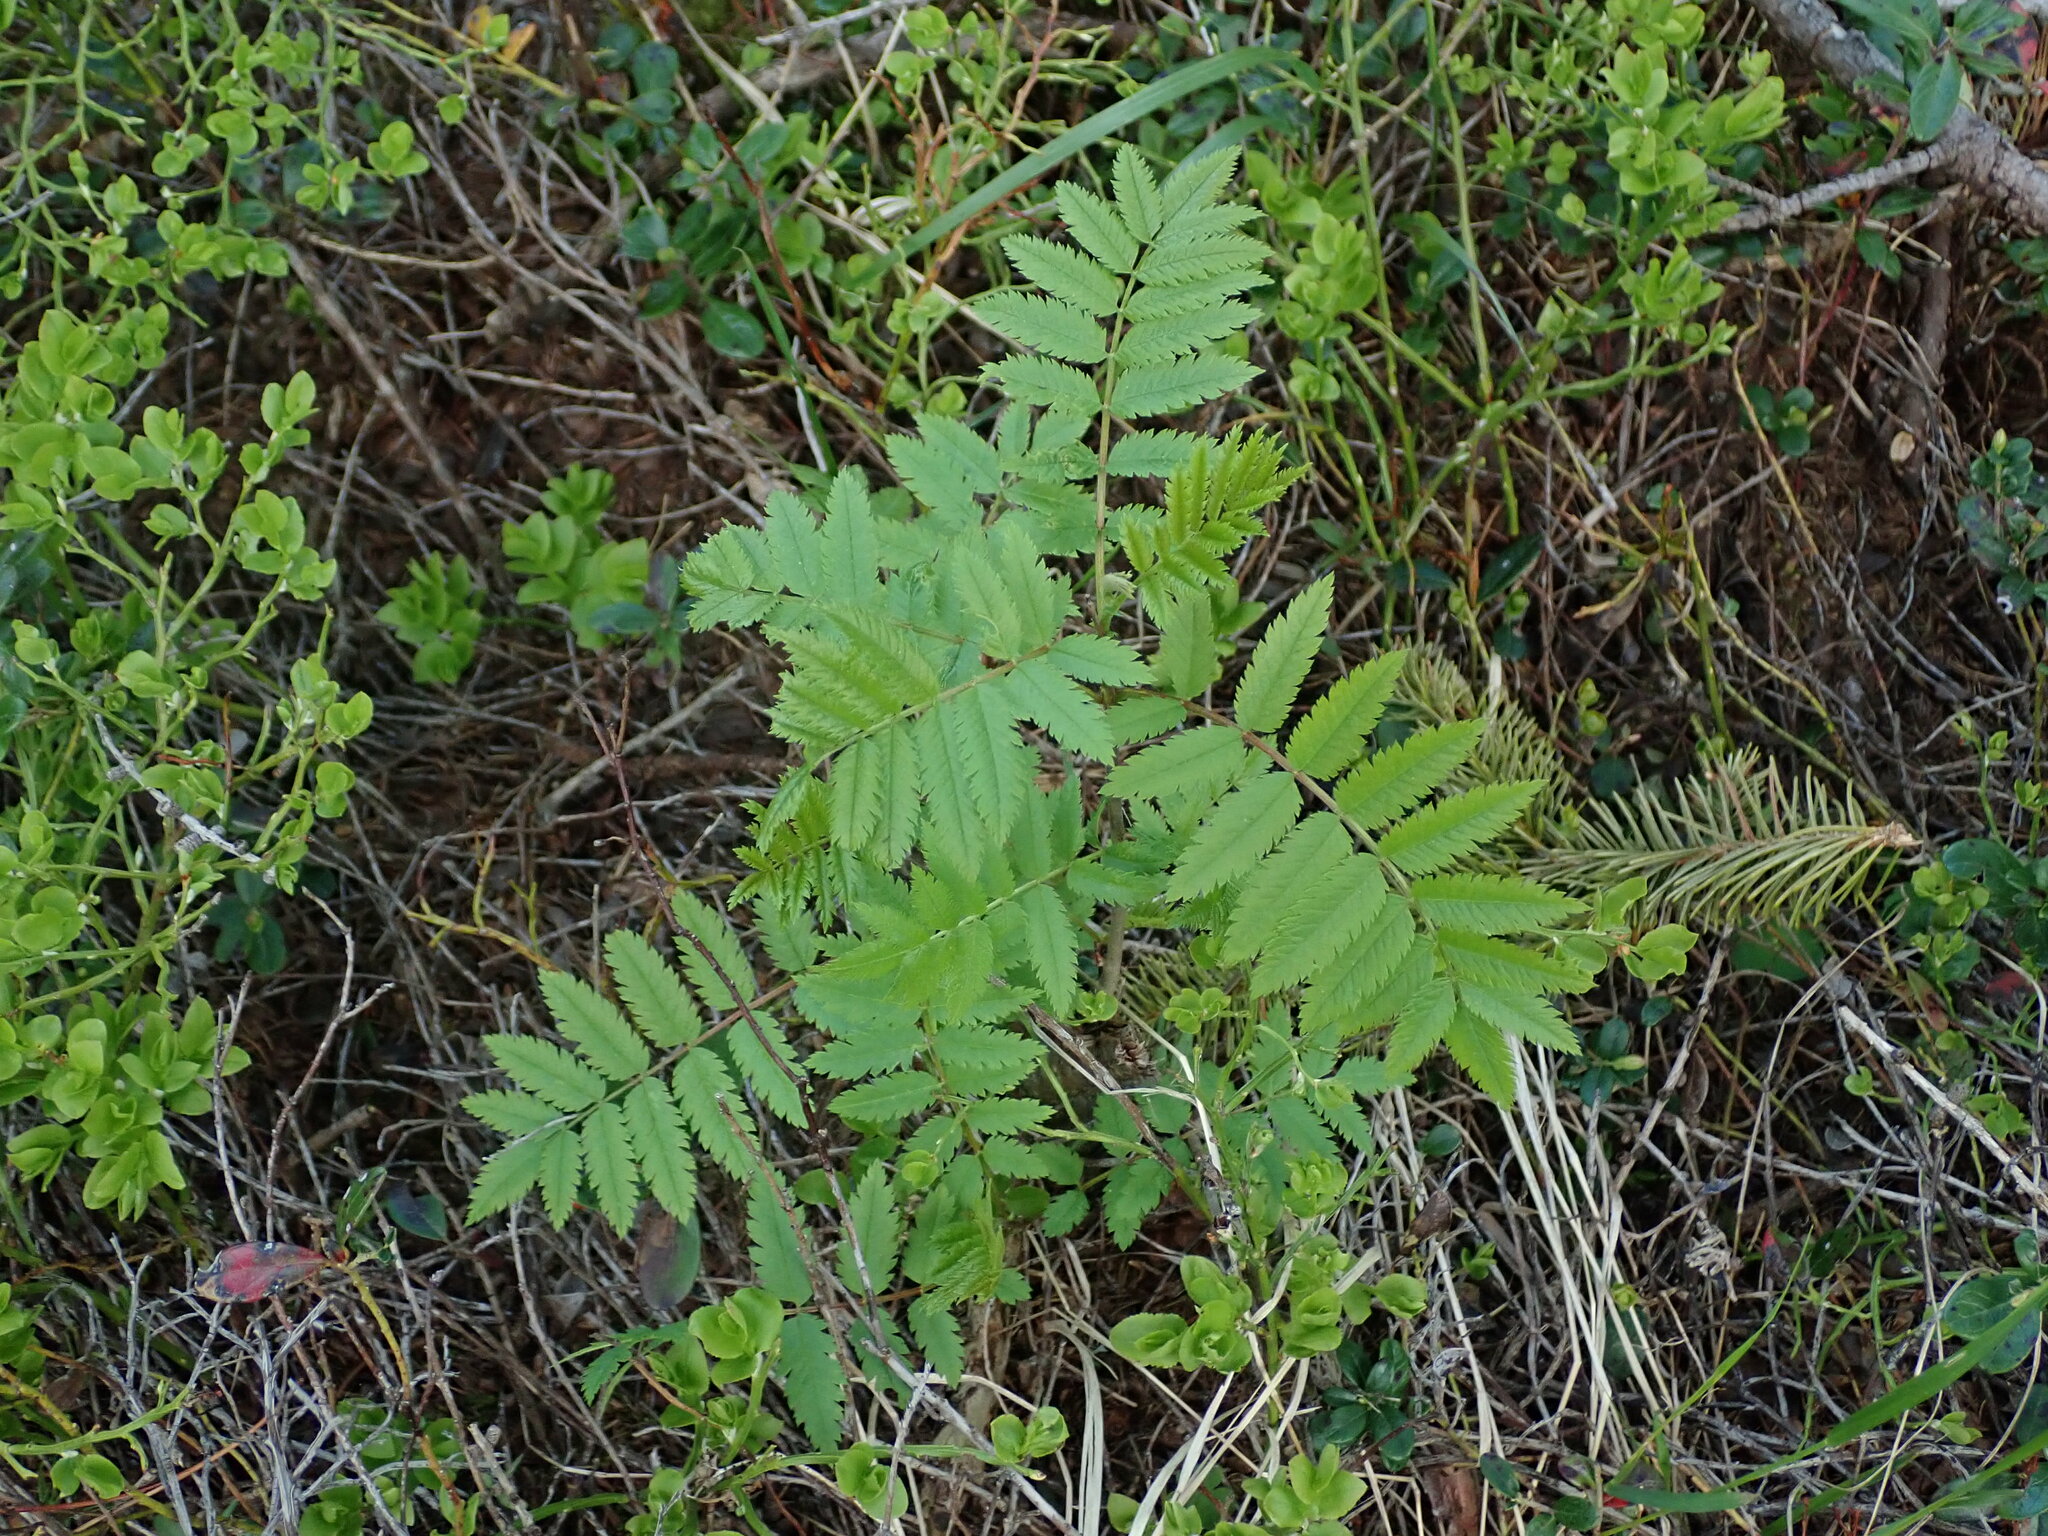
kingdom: Plantae
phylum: Tracheophyta
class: Magnoliopsida
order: Rosales
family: Rosaceae
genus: Sorbus
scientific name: Sorbus aucuparia
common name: Rowan
